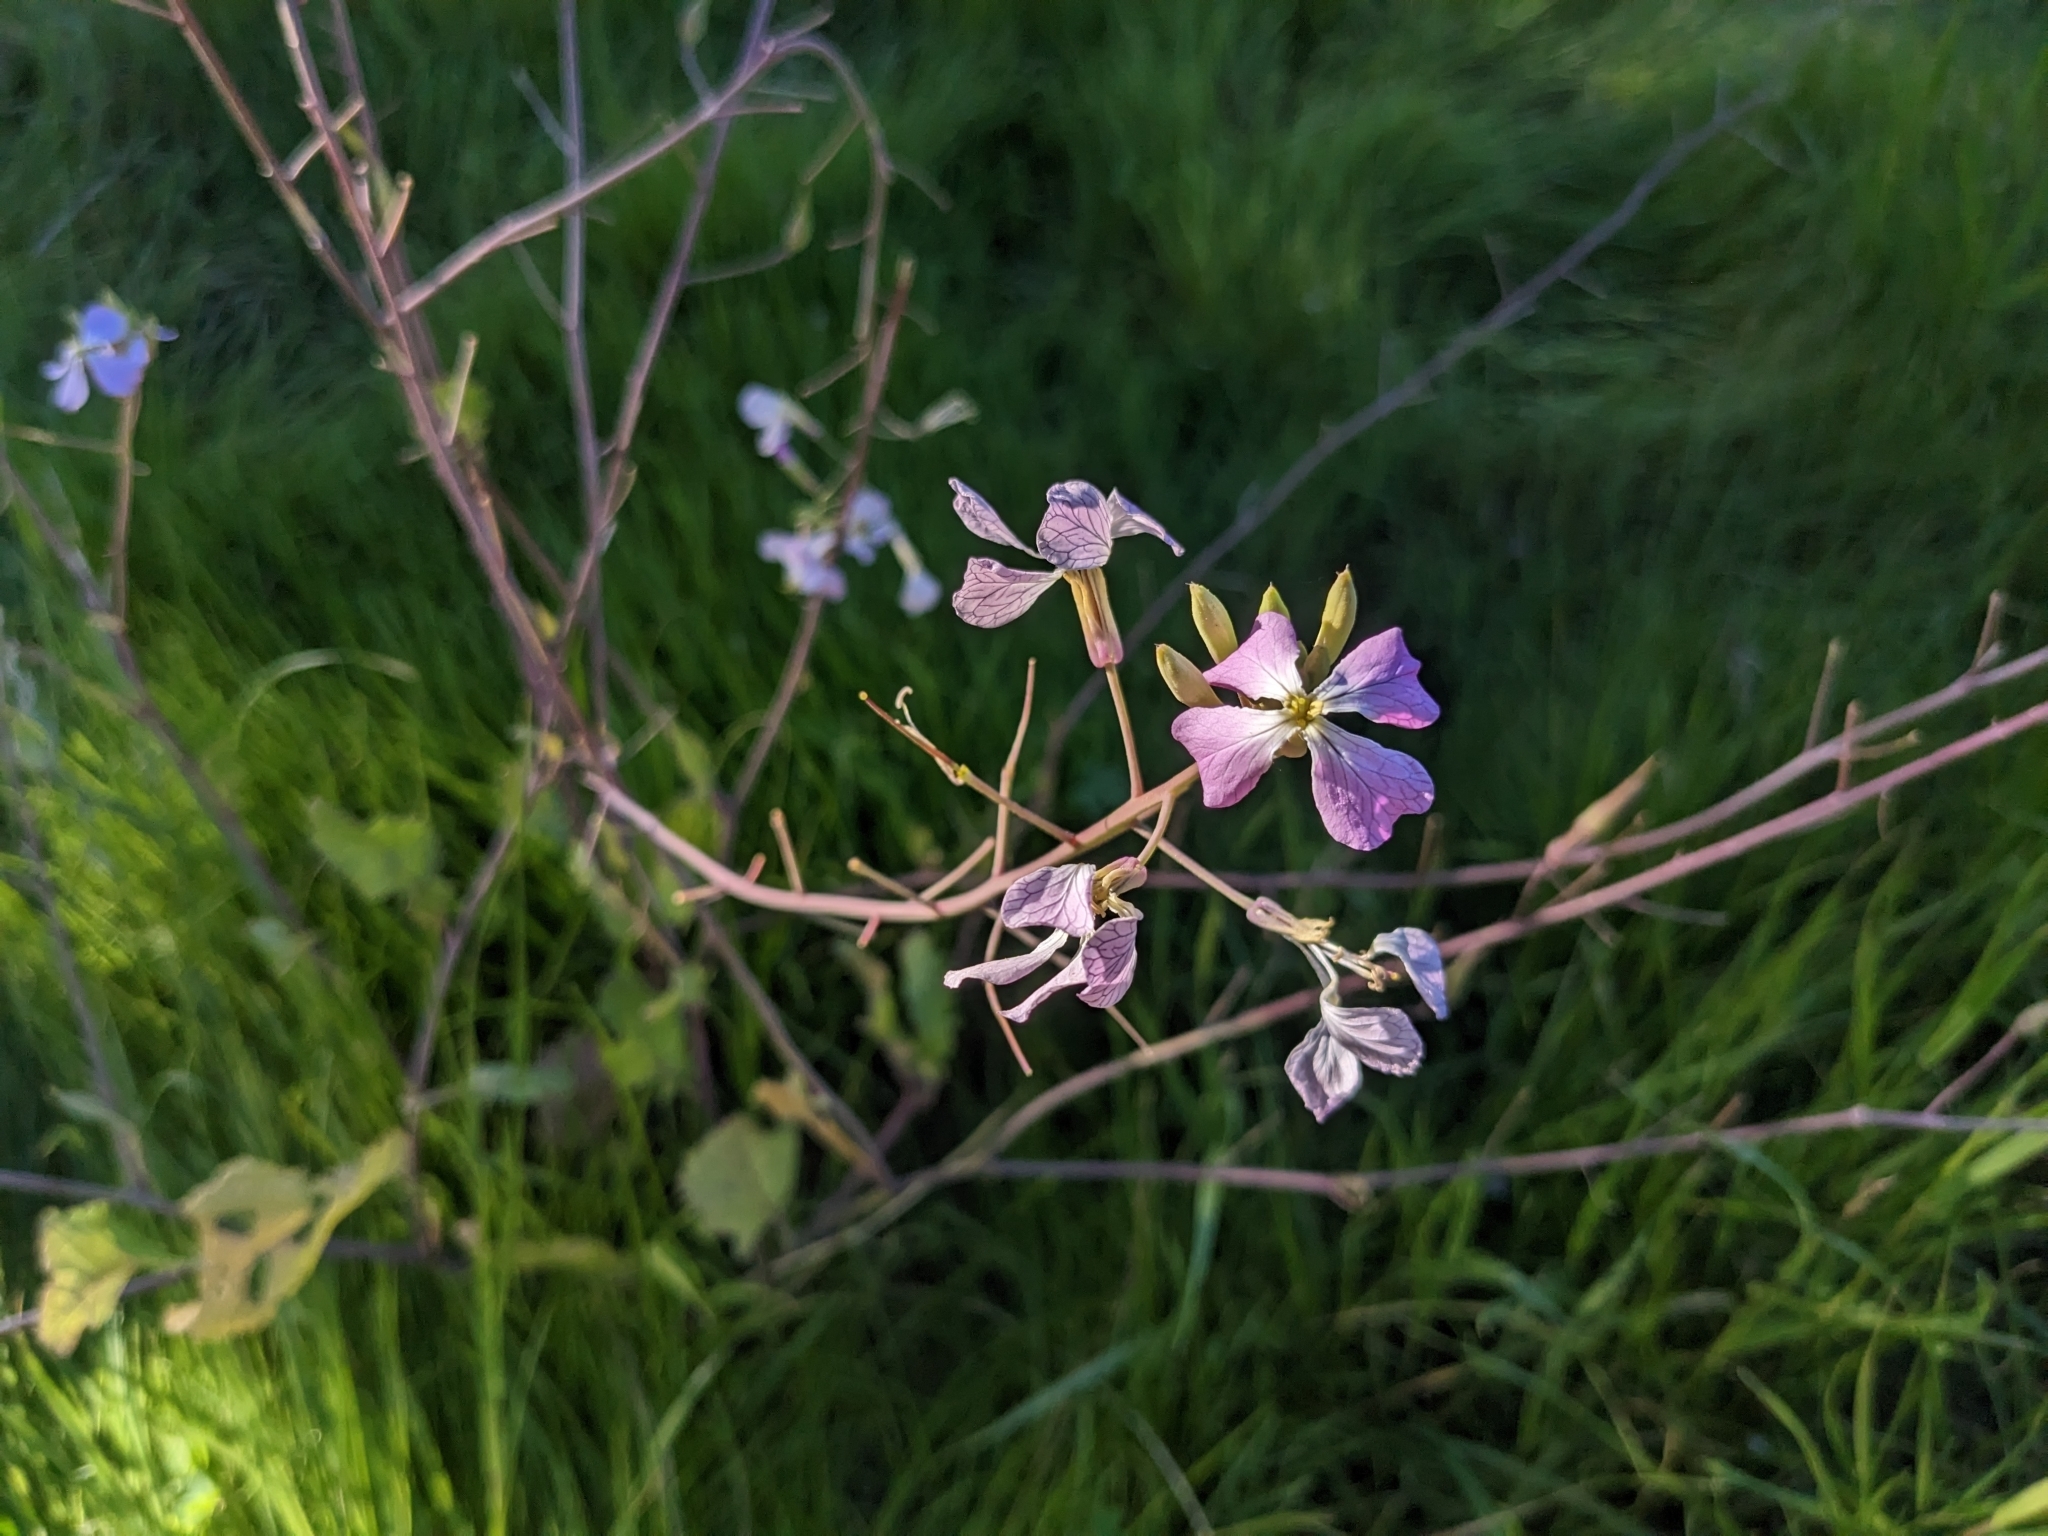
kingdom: Plantae
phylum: Tracheophyta
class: Magnoliopsida
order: Brassicales
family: Brassicaceae
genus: Raphanus
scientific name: Raphanus sativus
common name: Cultivated radish
